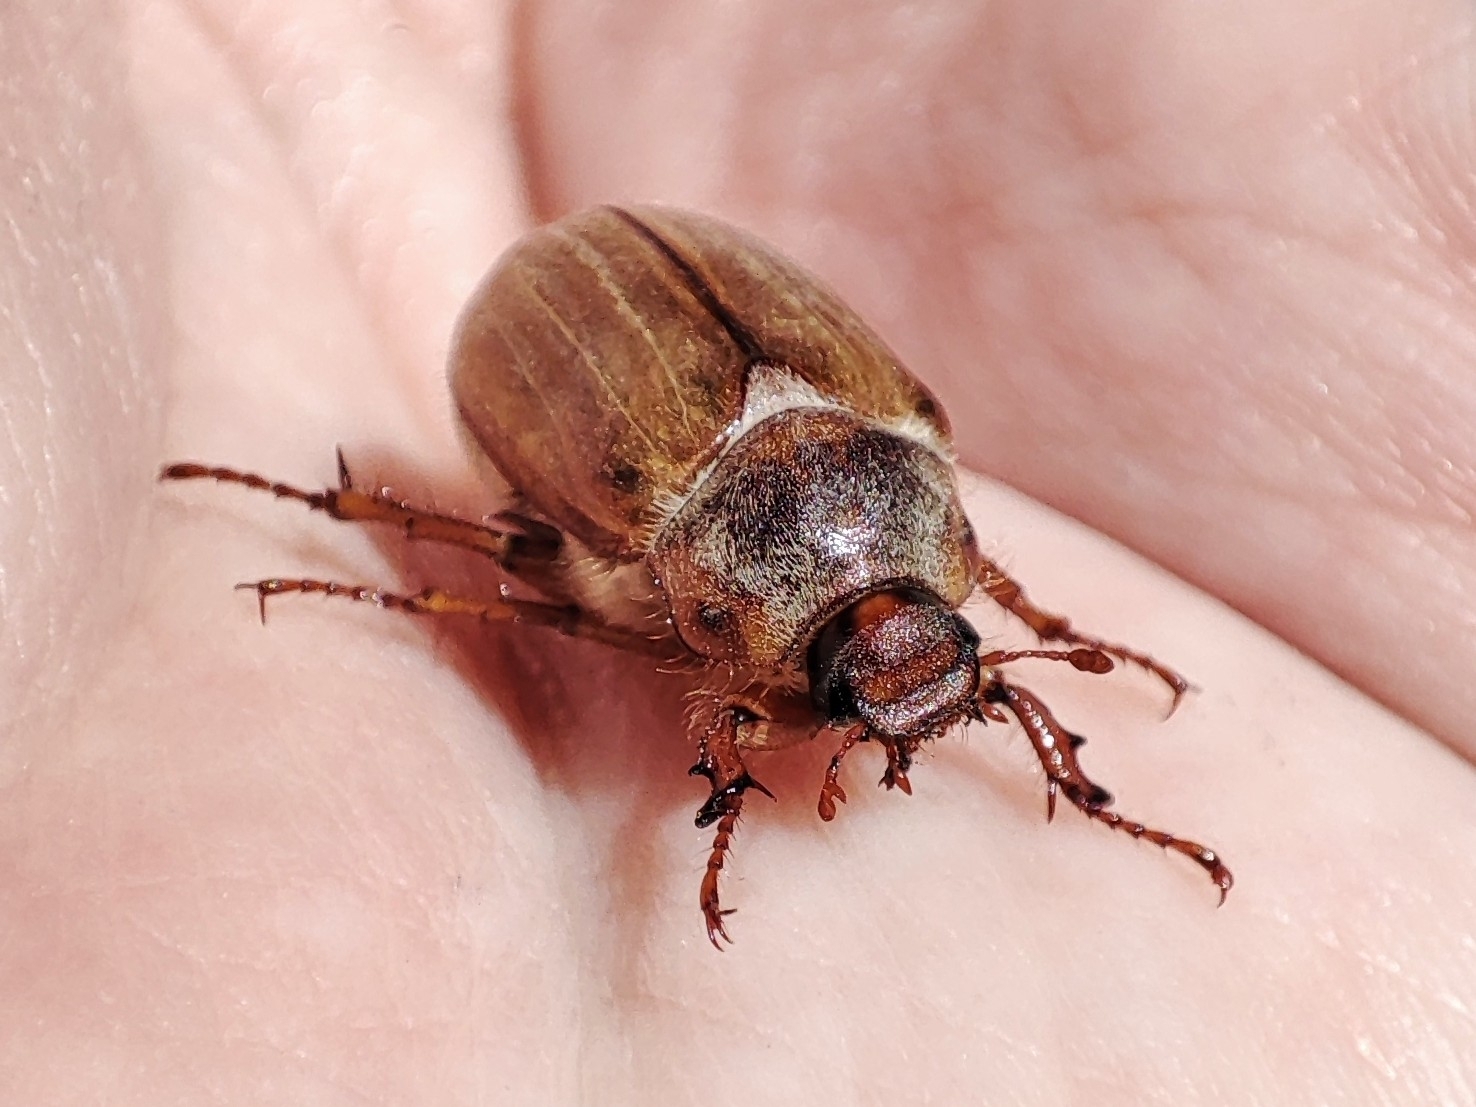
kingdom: Animalia
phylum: Arthropoda
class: Insecta
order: Coleoptera
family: Scarabaeidae
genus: Amphimallon
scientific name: Amphimallon solstitiale
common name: Summer chafer
